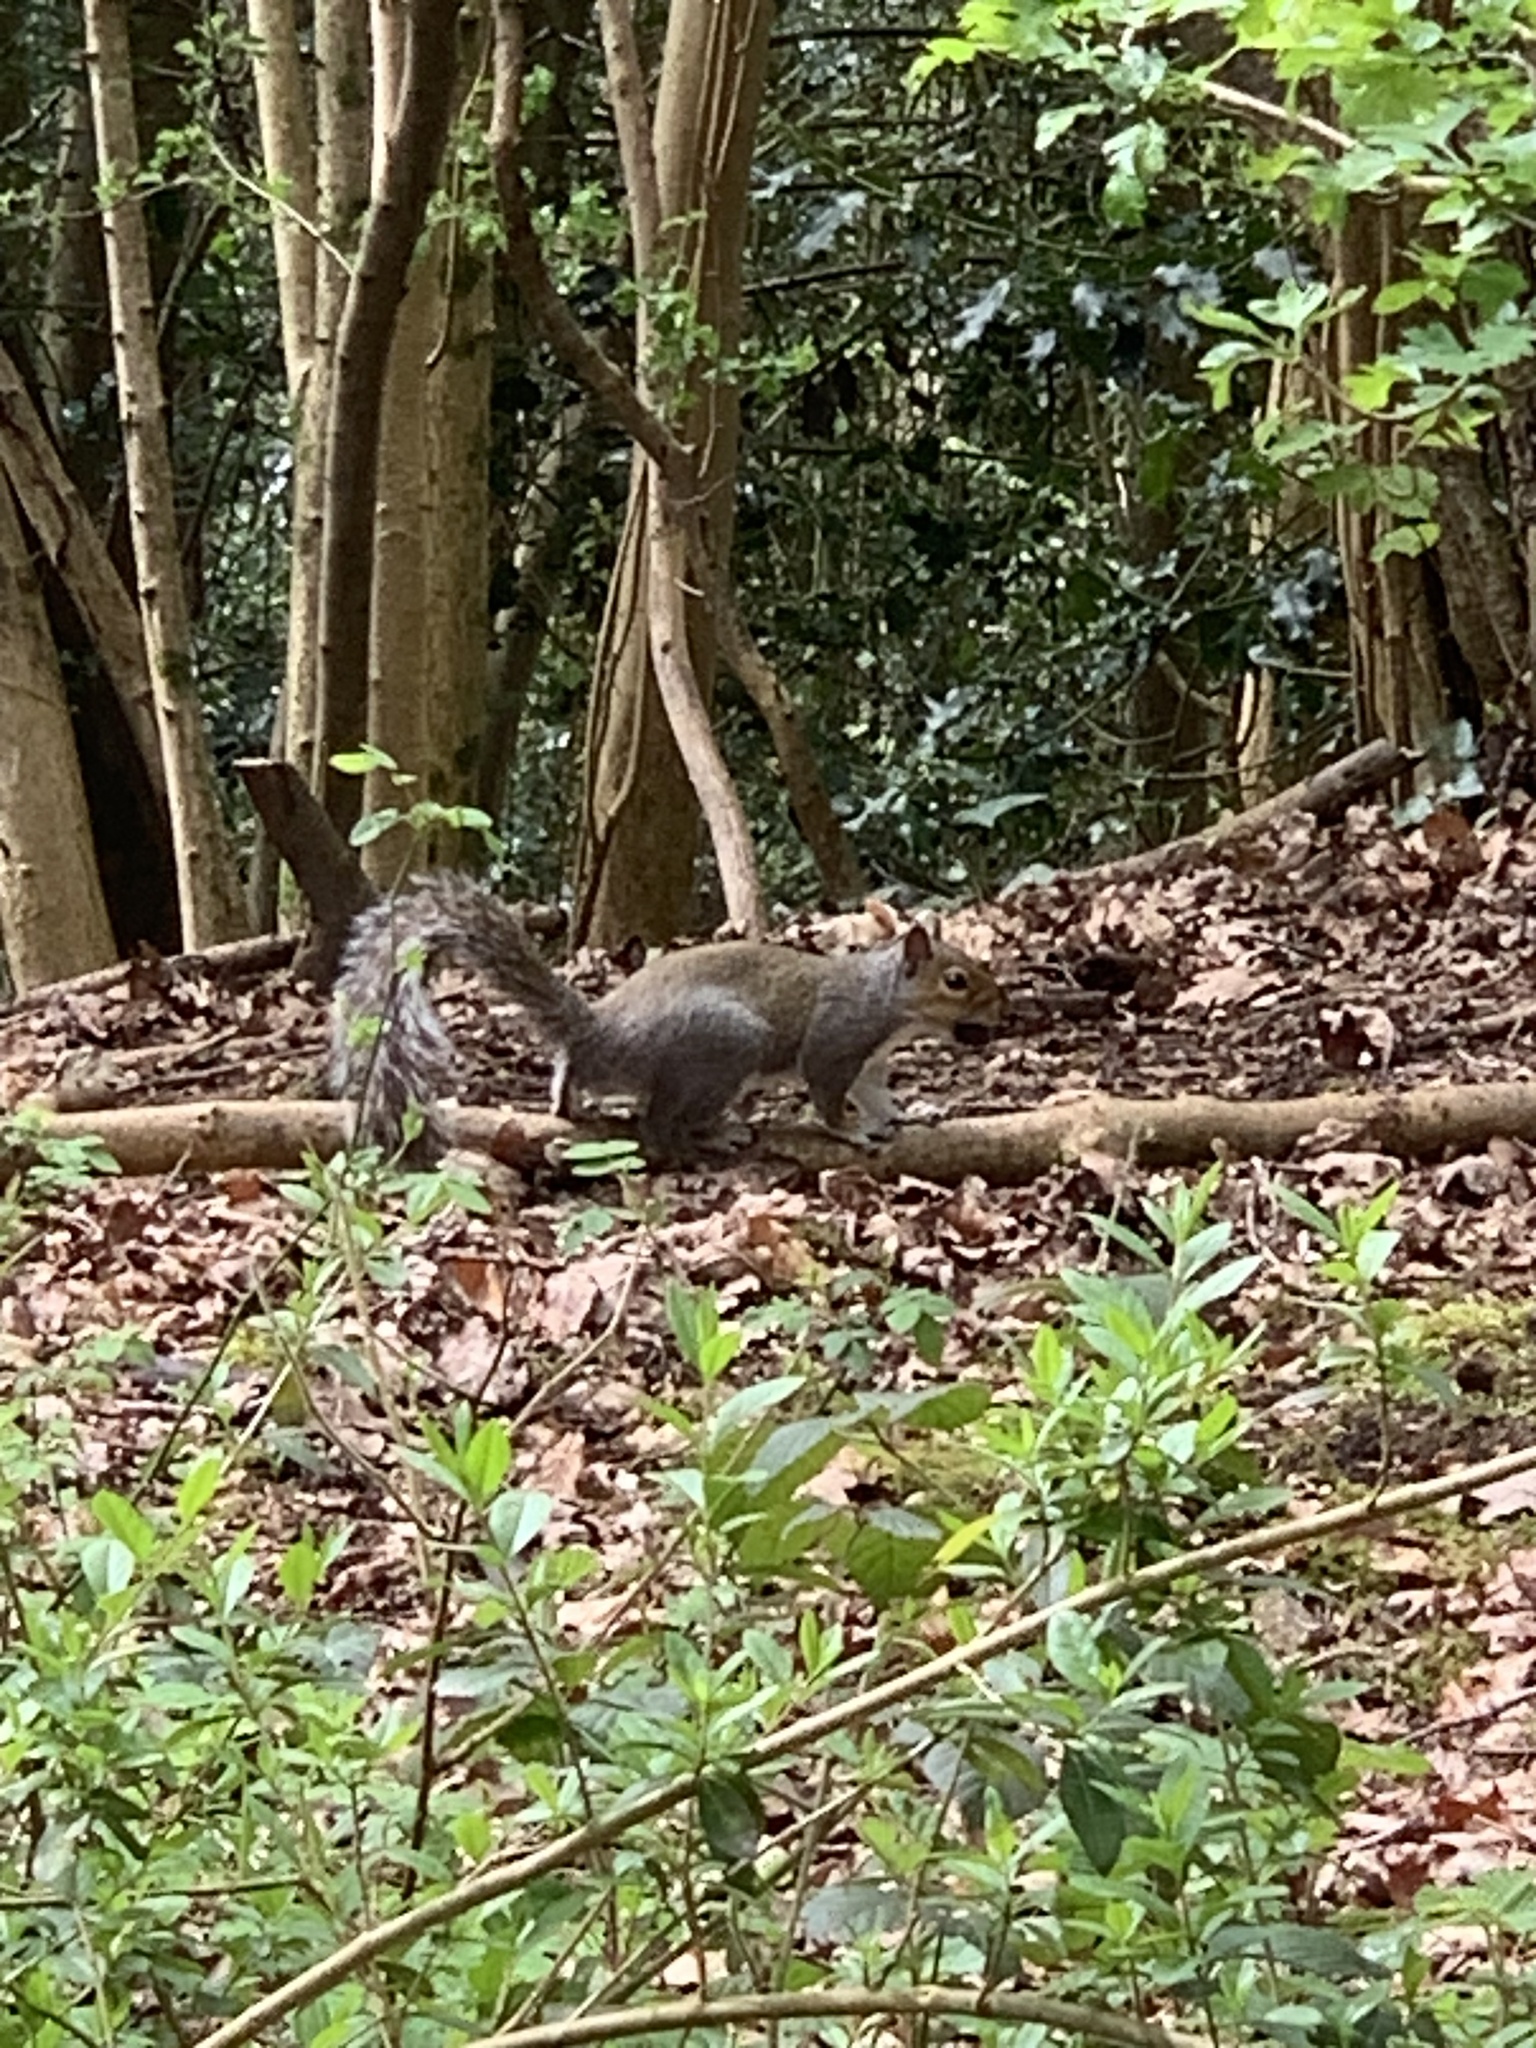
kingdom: Animalia
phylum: Chordata
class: Mammalia
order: Rodentia
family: Sciuridae
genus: Sciurus
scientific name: Sciurus carolinensis
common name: Eastern gray squirrel
